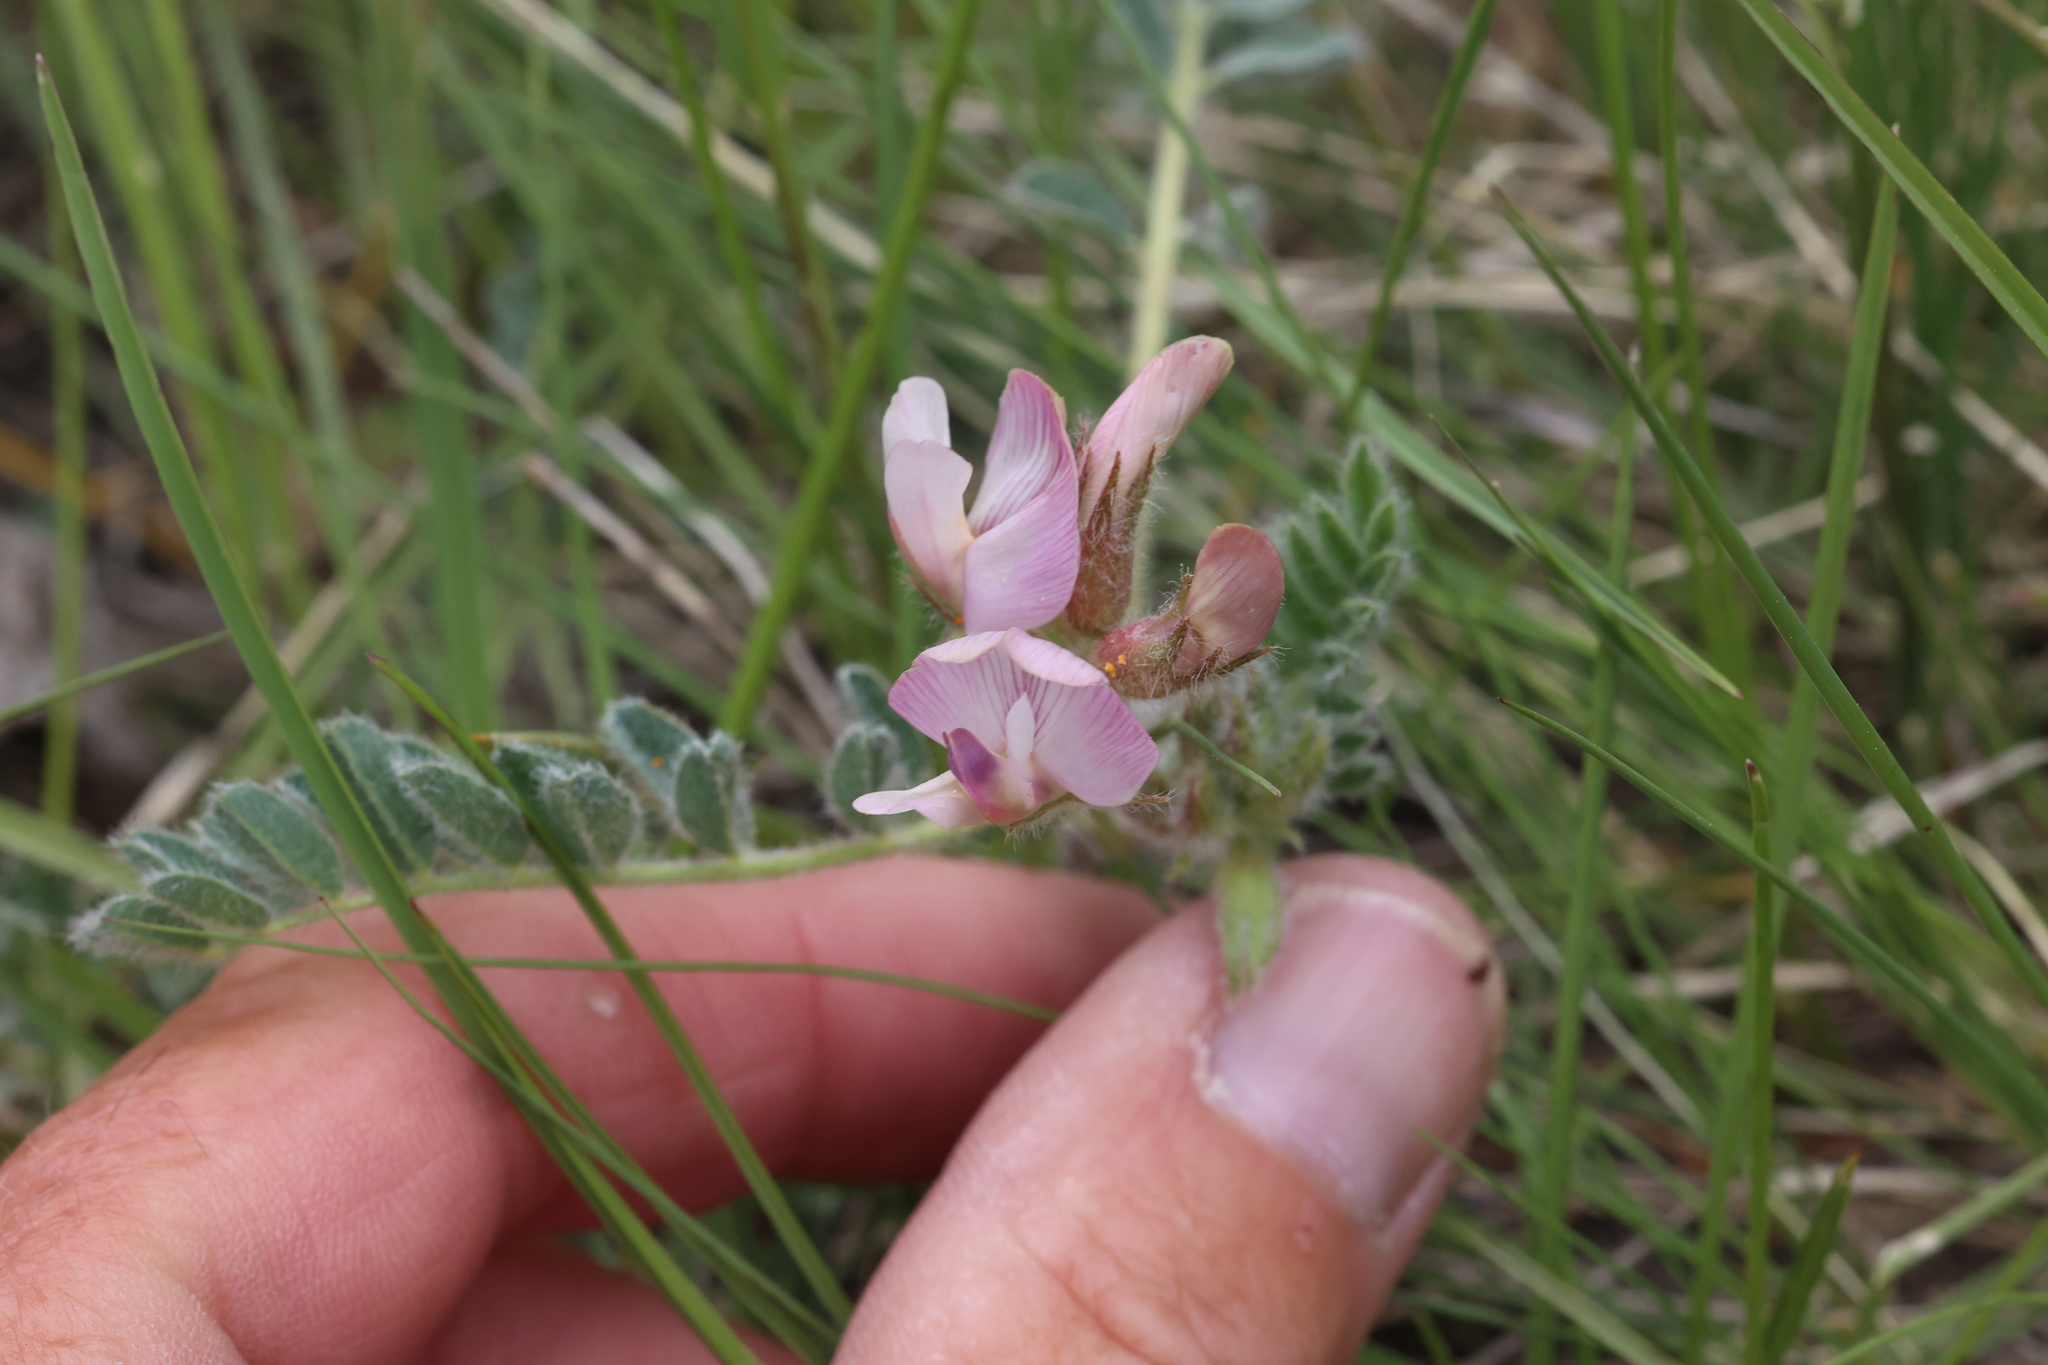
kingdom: Plantae
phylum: Tracheophyta
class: Magnoliopsida
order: Fabales
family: Fabaceae
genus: Astragalus
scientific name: Astragalus parryi
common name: Parry milk-vetch
